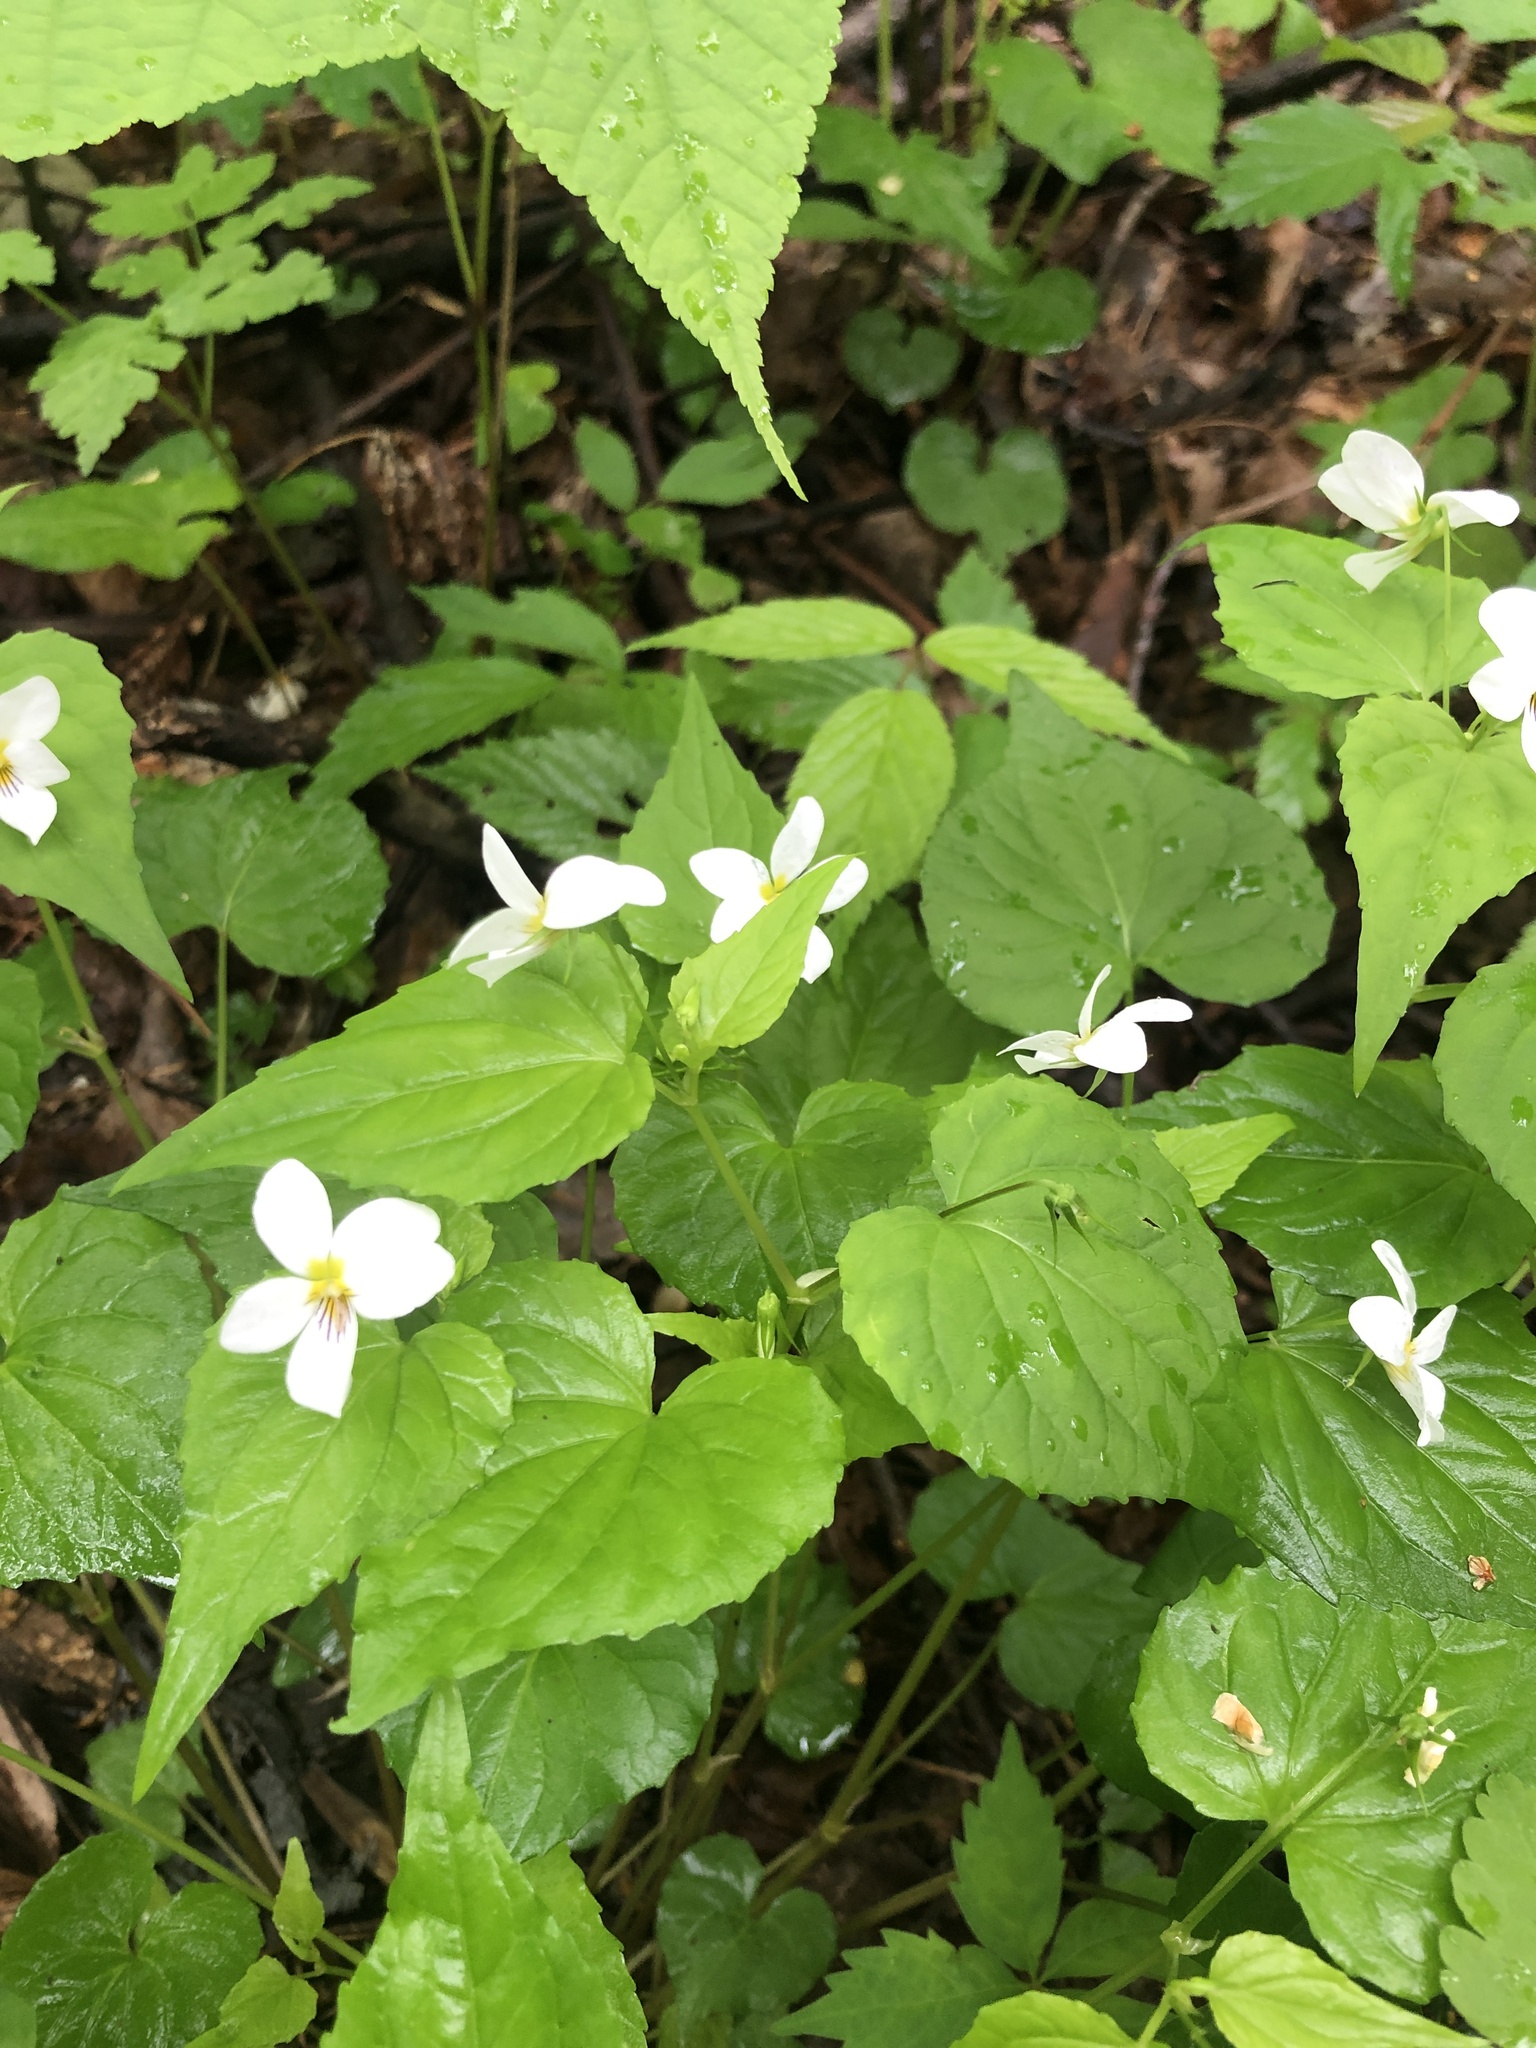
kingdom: Plantae
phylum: Tracheophyta
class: Magnoliopsida
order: Malpighiales
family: Violaceae
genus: Viola
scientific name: Viola canadensis
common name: Canada violet
